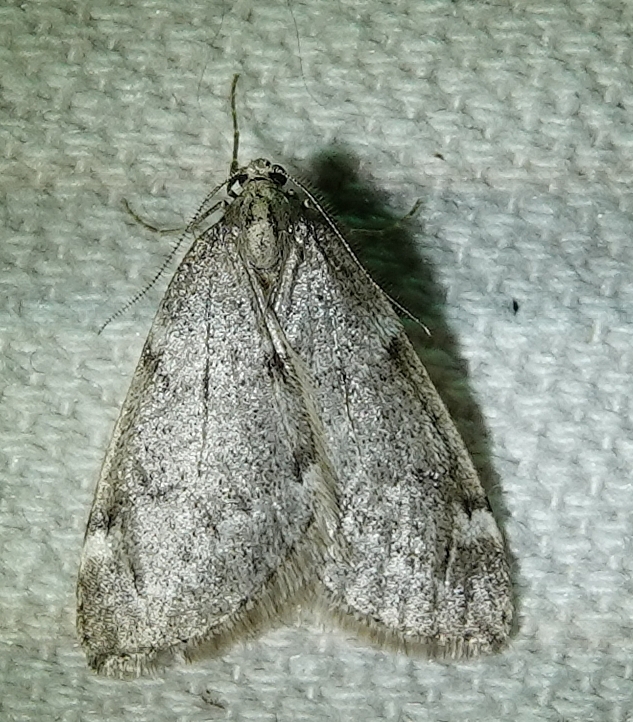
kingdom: Animalia
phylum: Arthropoda
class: Insecta
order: Lepidoptera
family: Geometridae
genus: Alsophila
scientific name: Alsophila pometaria
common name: Fall cankerworm
